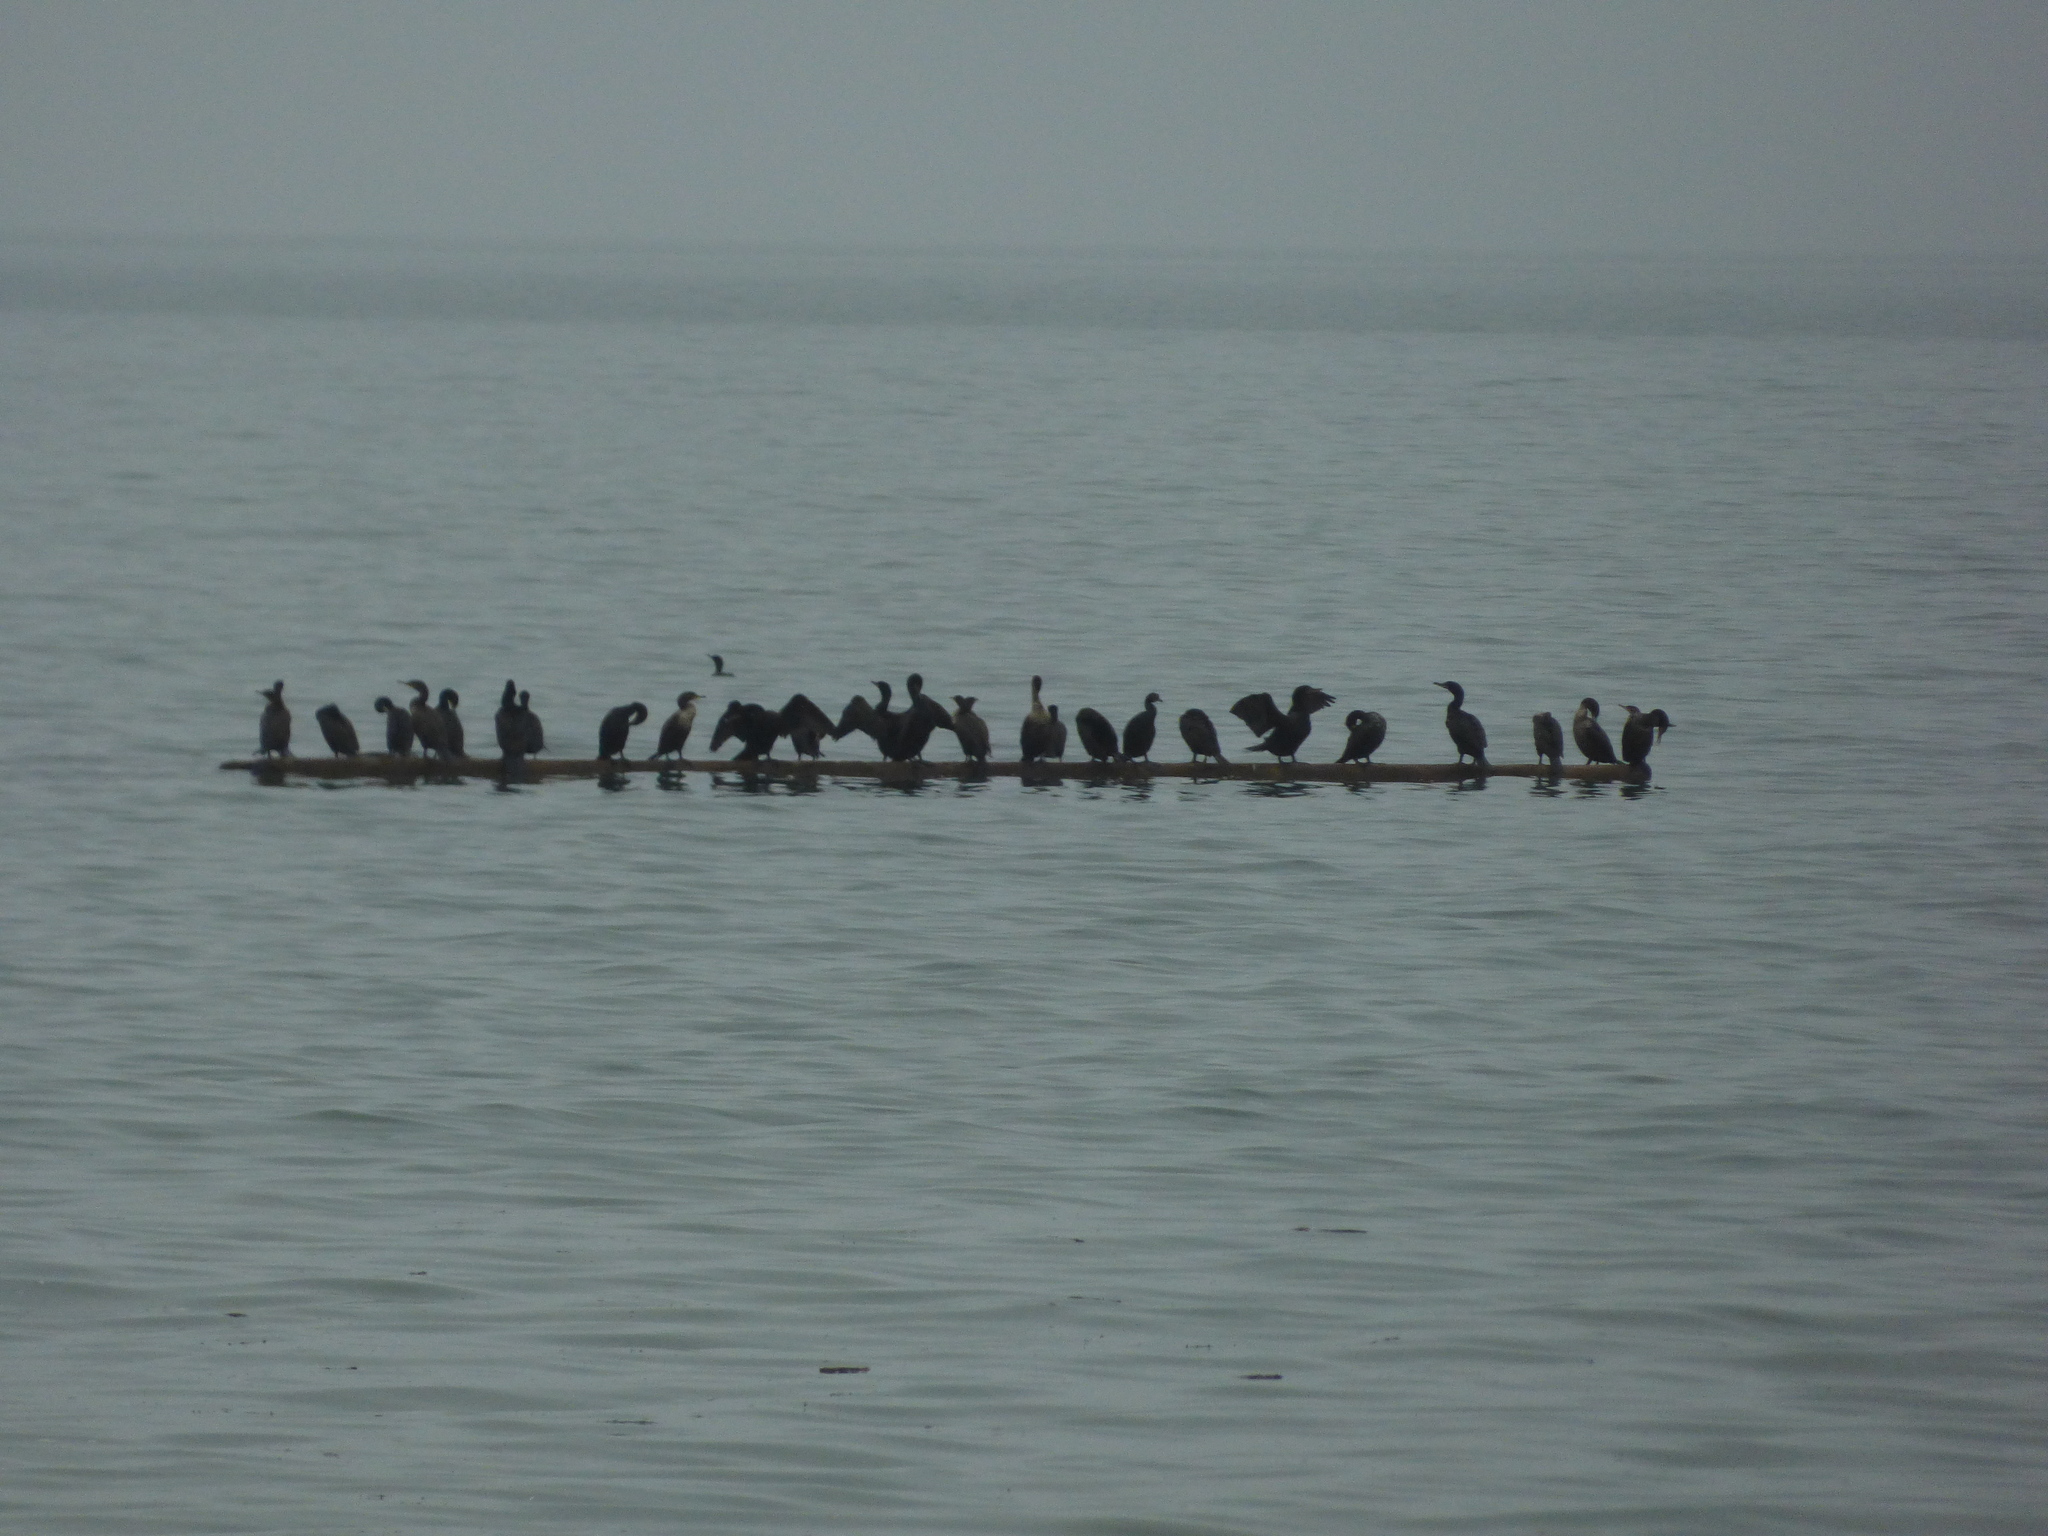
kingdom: Animalia
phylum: Chordata
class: Aves
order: Suliformes
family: Phalacrocoracidae
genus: Phalacrocorax
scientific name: Phalacrocorax auritus
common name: Double-crested cormorant
